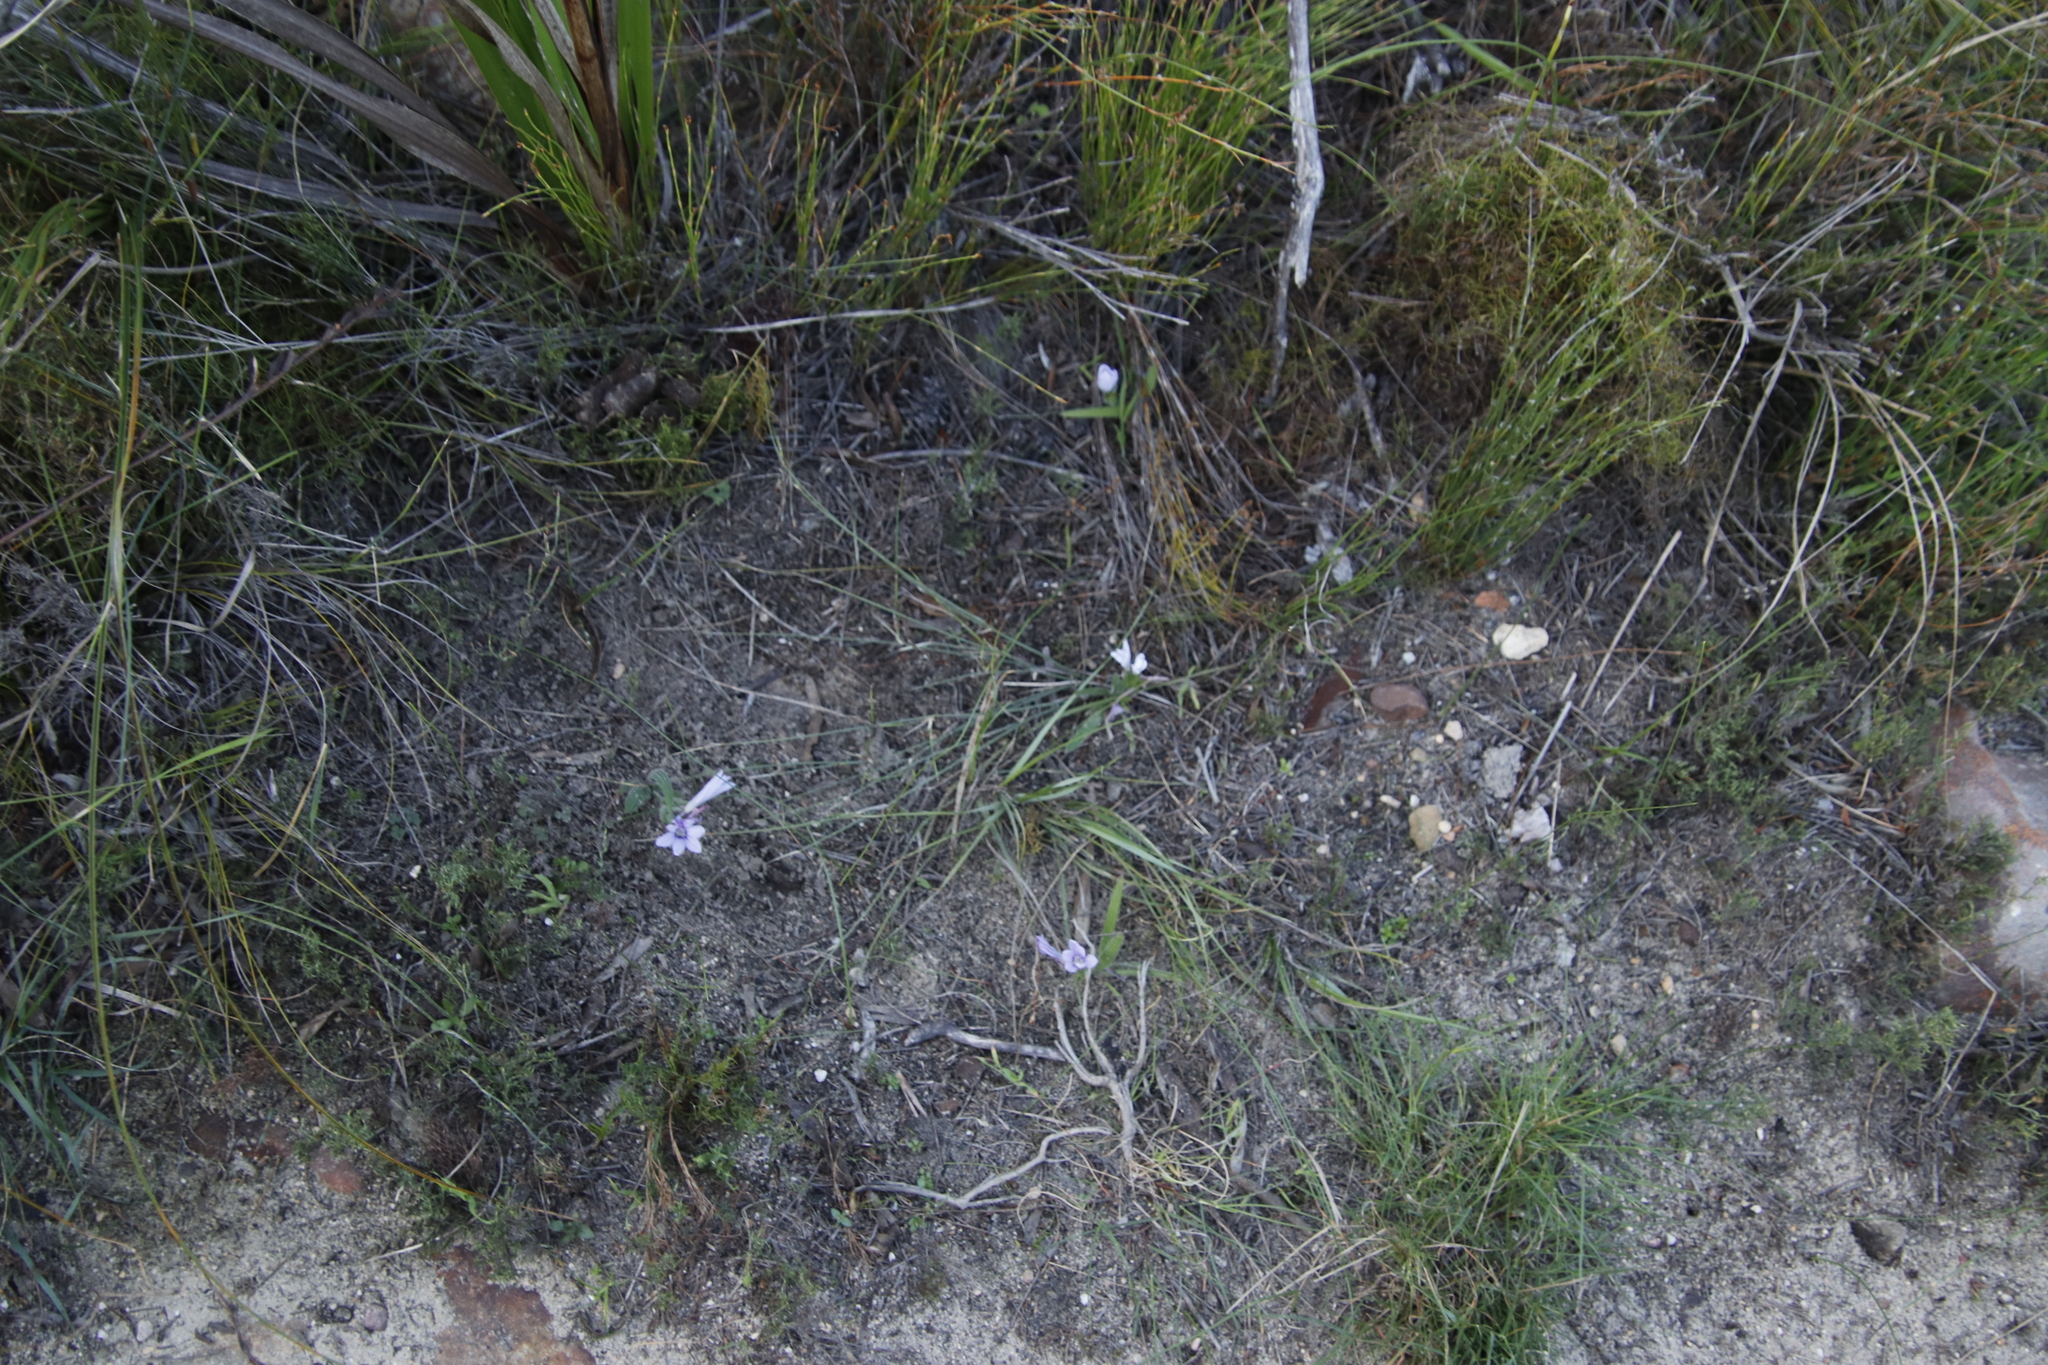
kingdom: Plantae
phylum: Tracheophyta
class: Liliopsida
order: Asparagales
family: Iridaceae
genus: Babiana
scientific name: Babiana villosula
